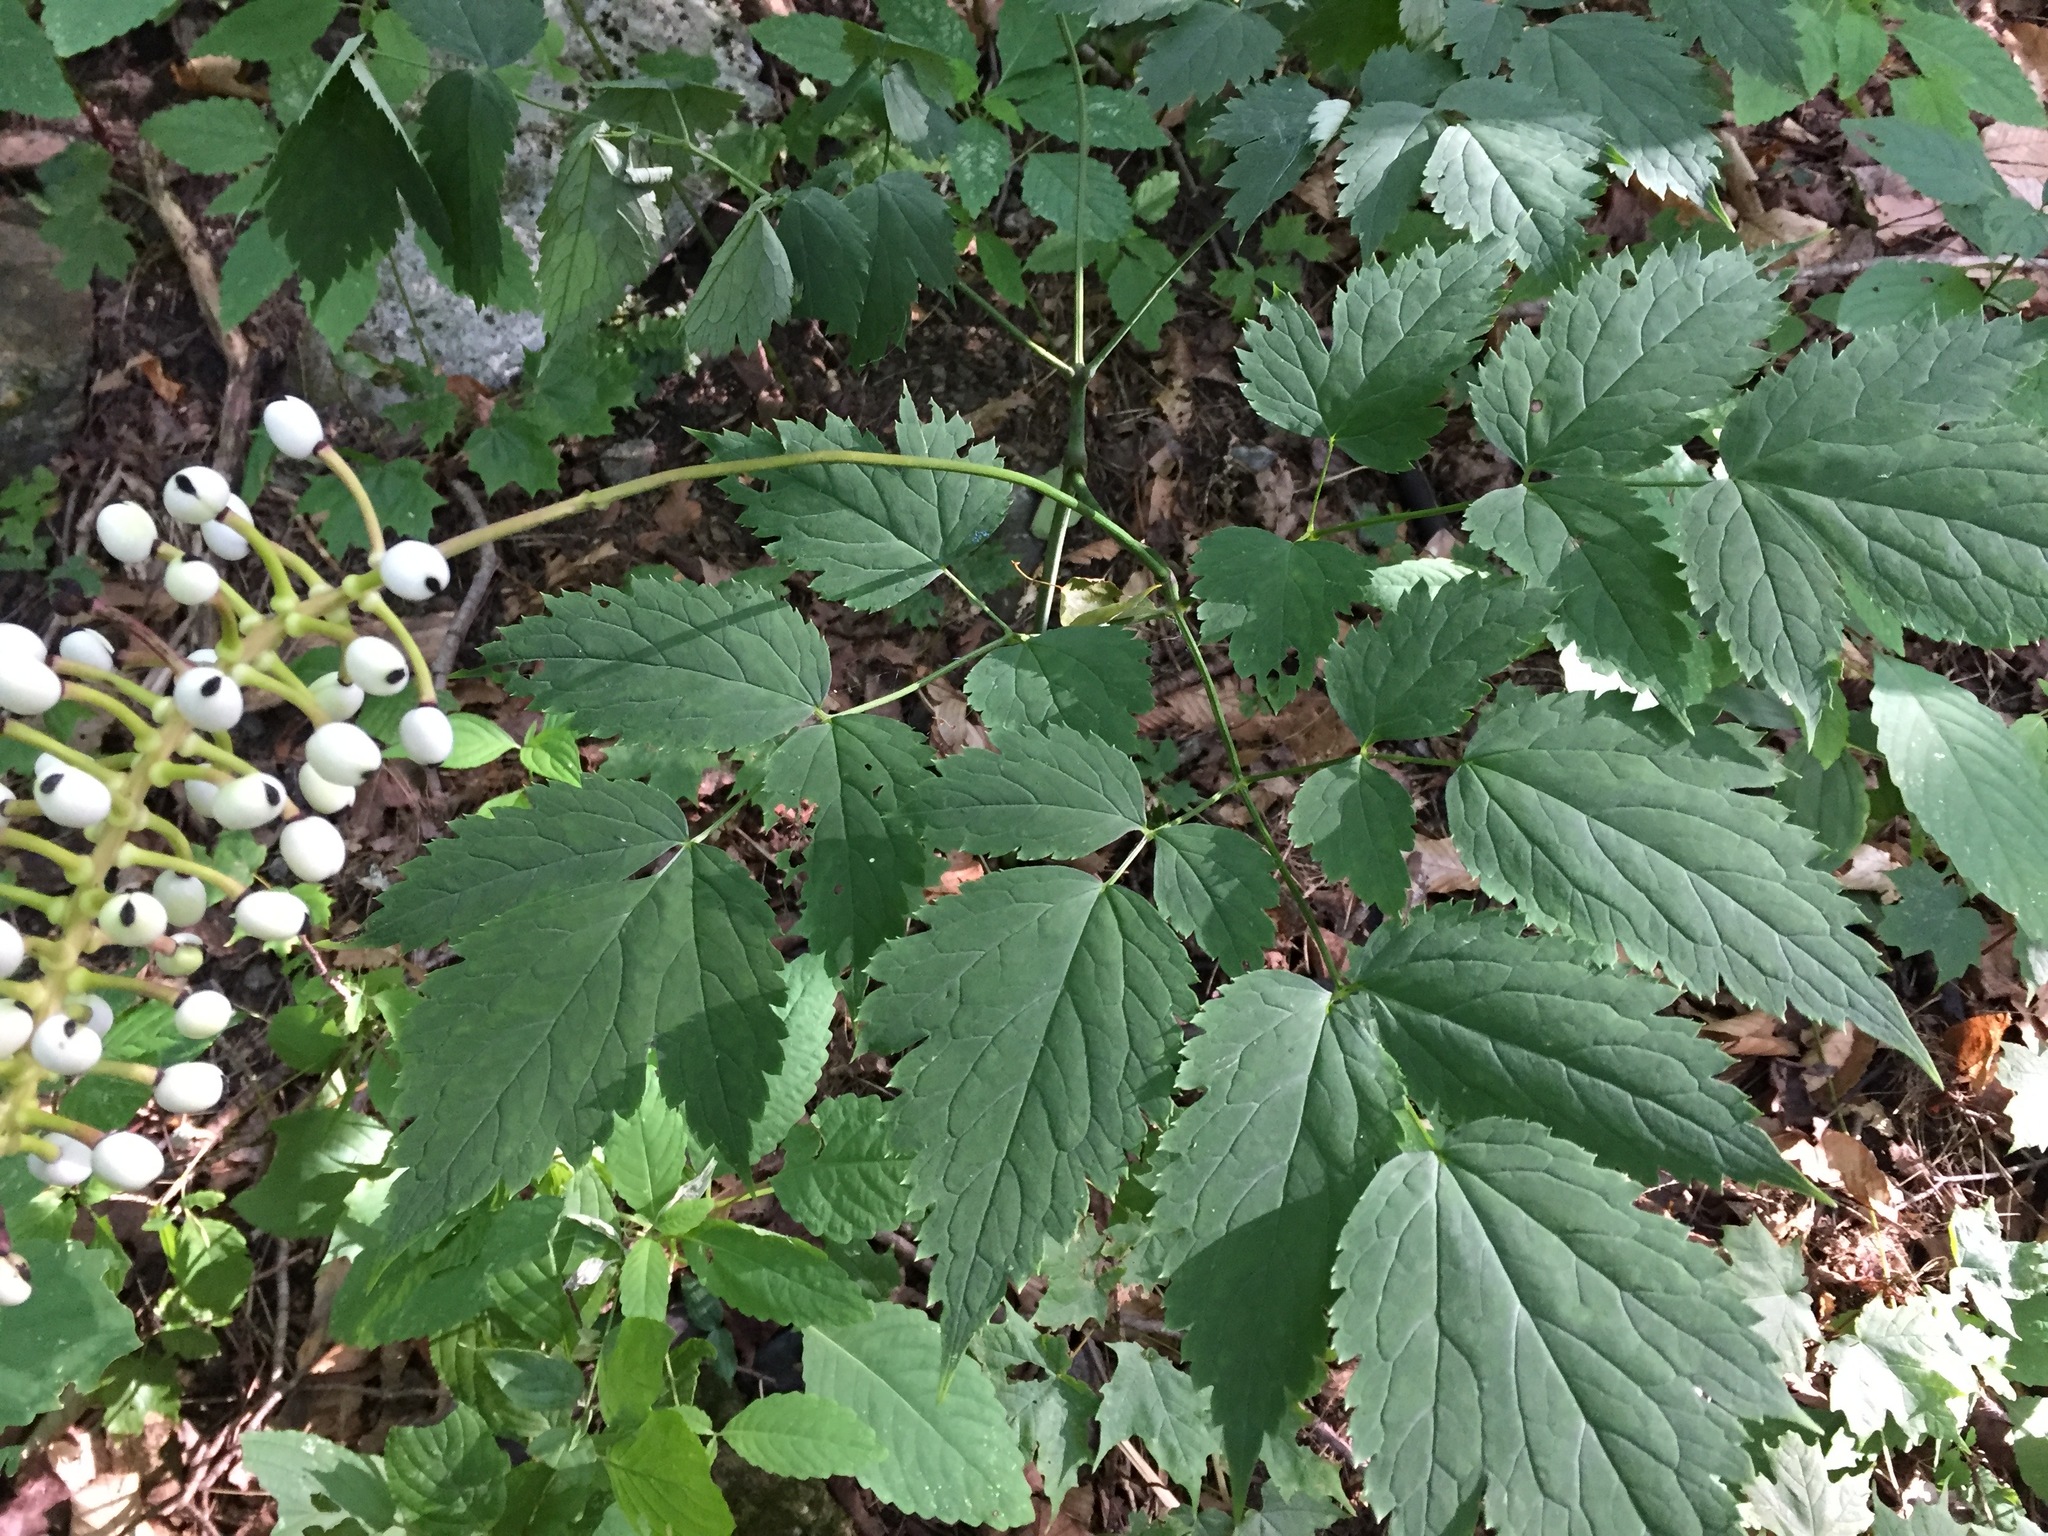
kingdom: Plantae
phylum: Tracheophyta
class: Magnoliopsida
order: Ranunculales
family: Ranunculaceae
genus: Actaea
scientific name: Actaea pachypoda
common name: Doll's-eyes
